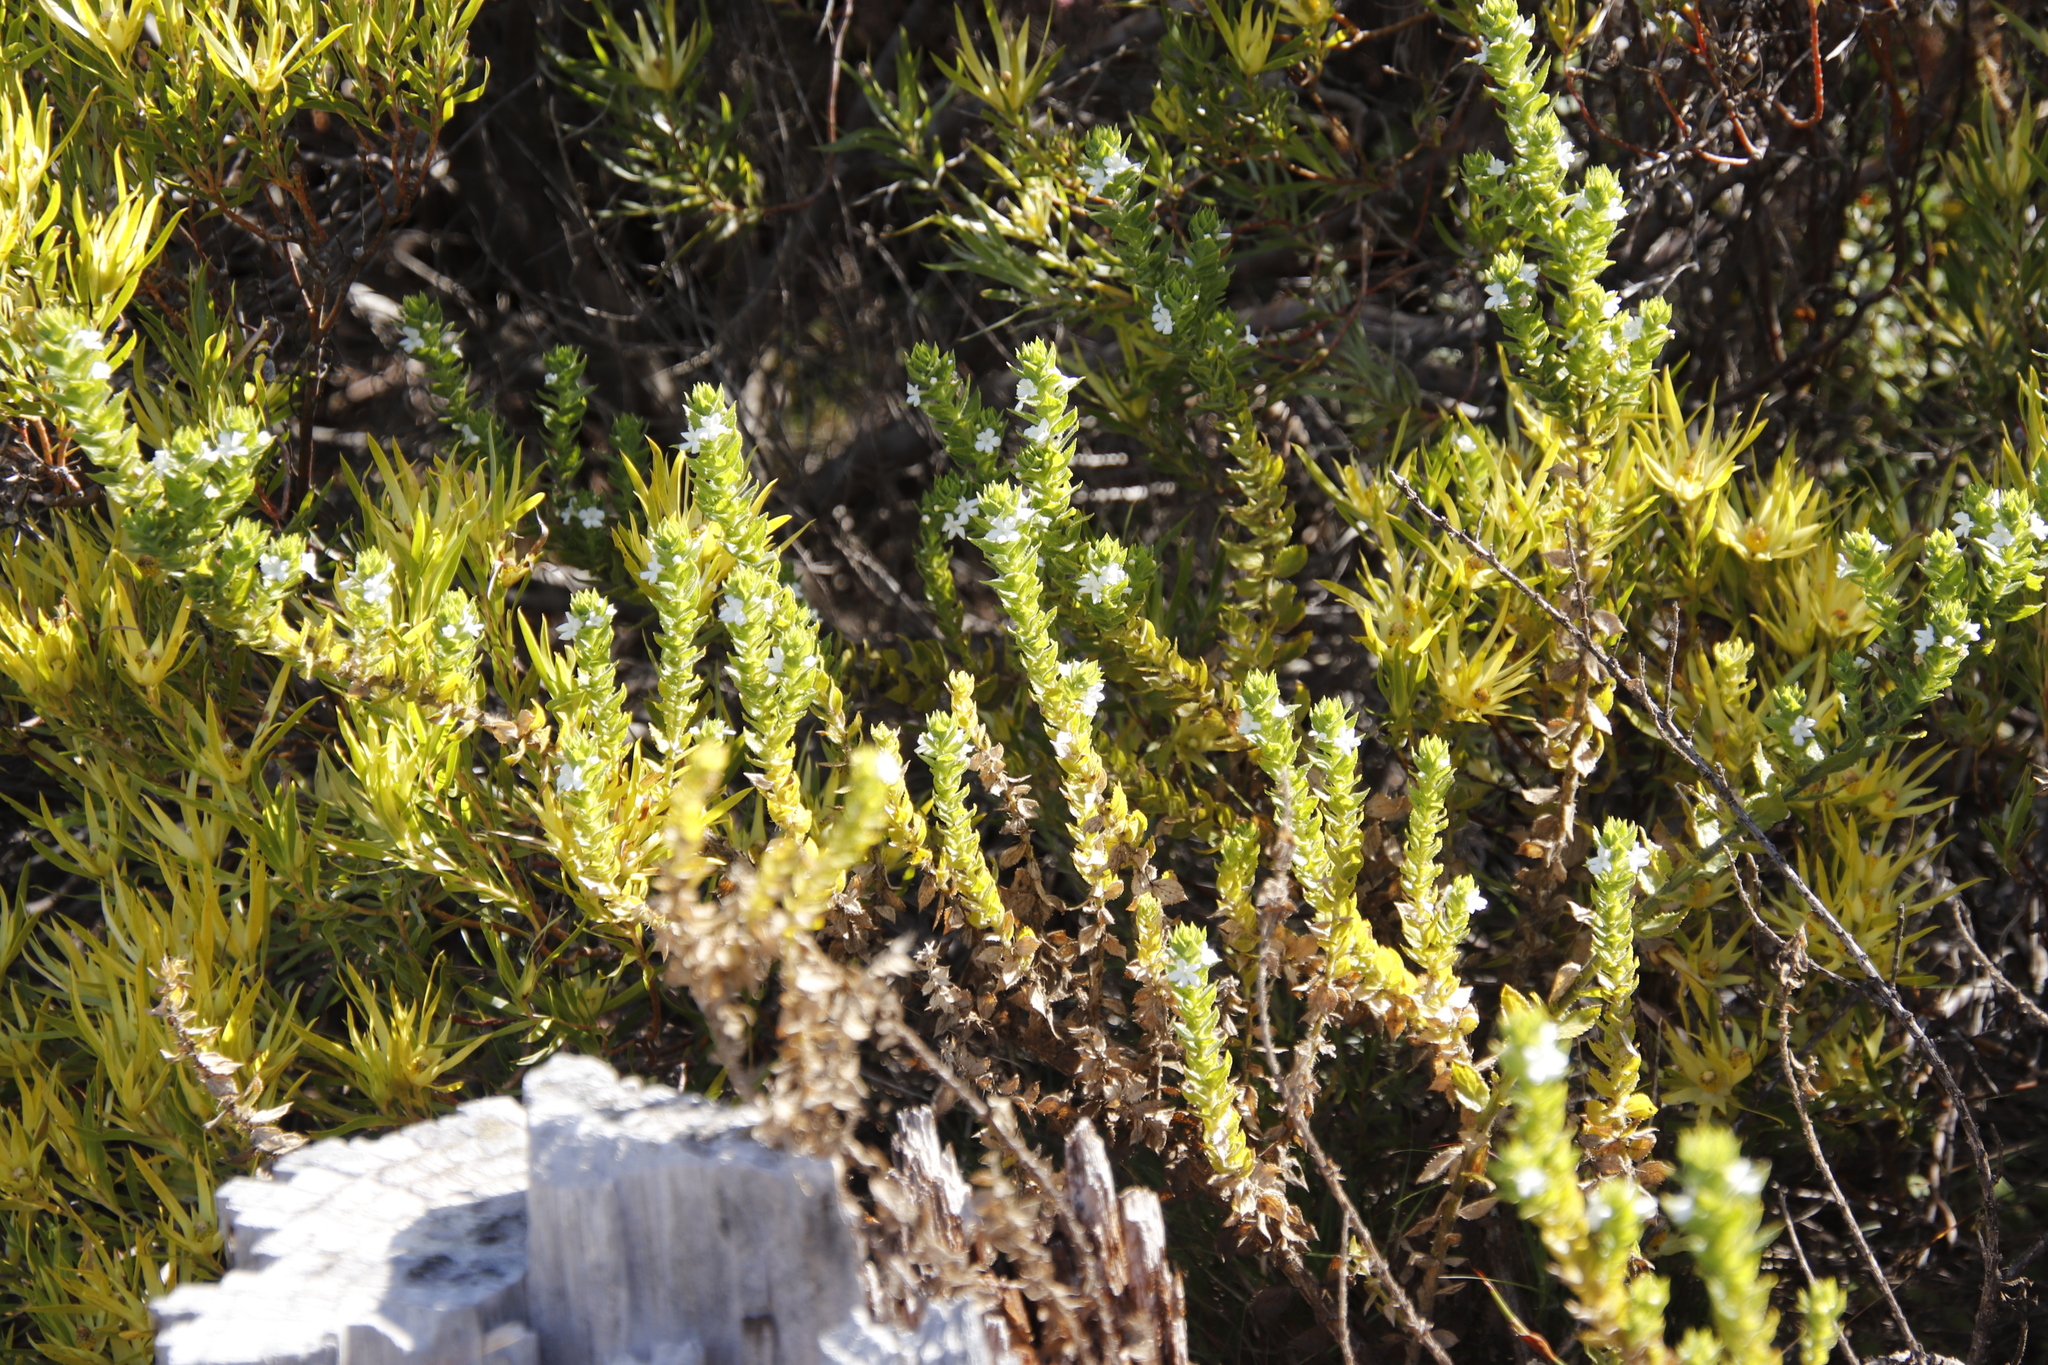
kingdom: Plantae
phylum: Tracheophyta
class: Magnoliopsida
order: Lamiales
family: Scrophulariaceae
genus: Oftia
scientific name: Oftia africana
